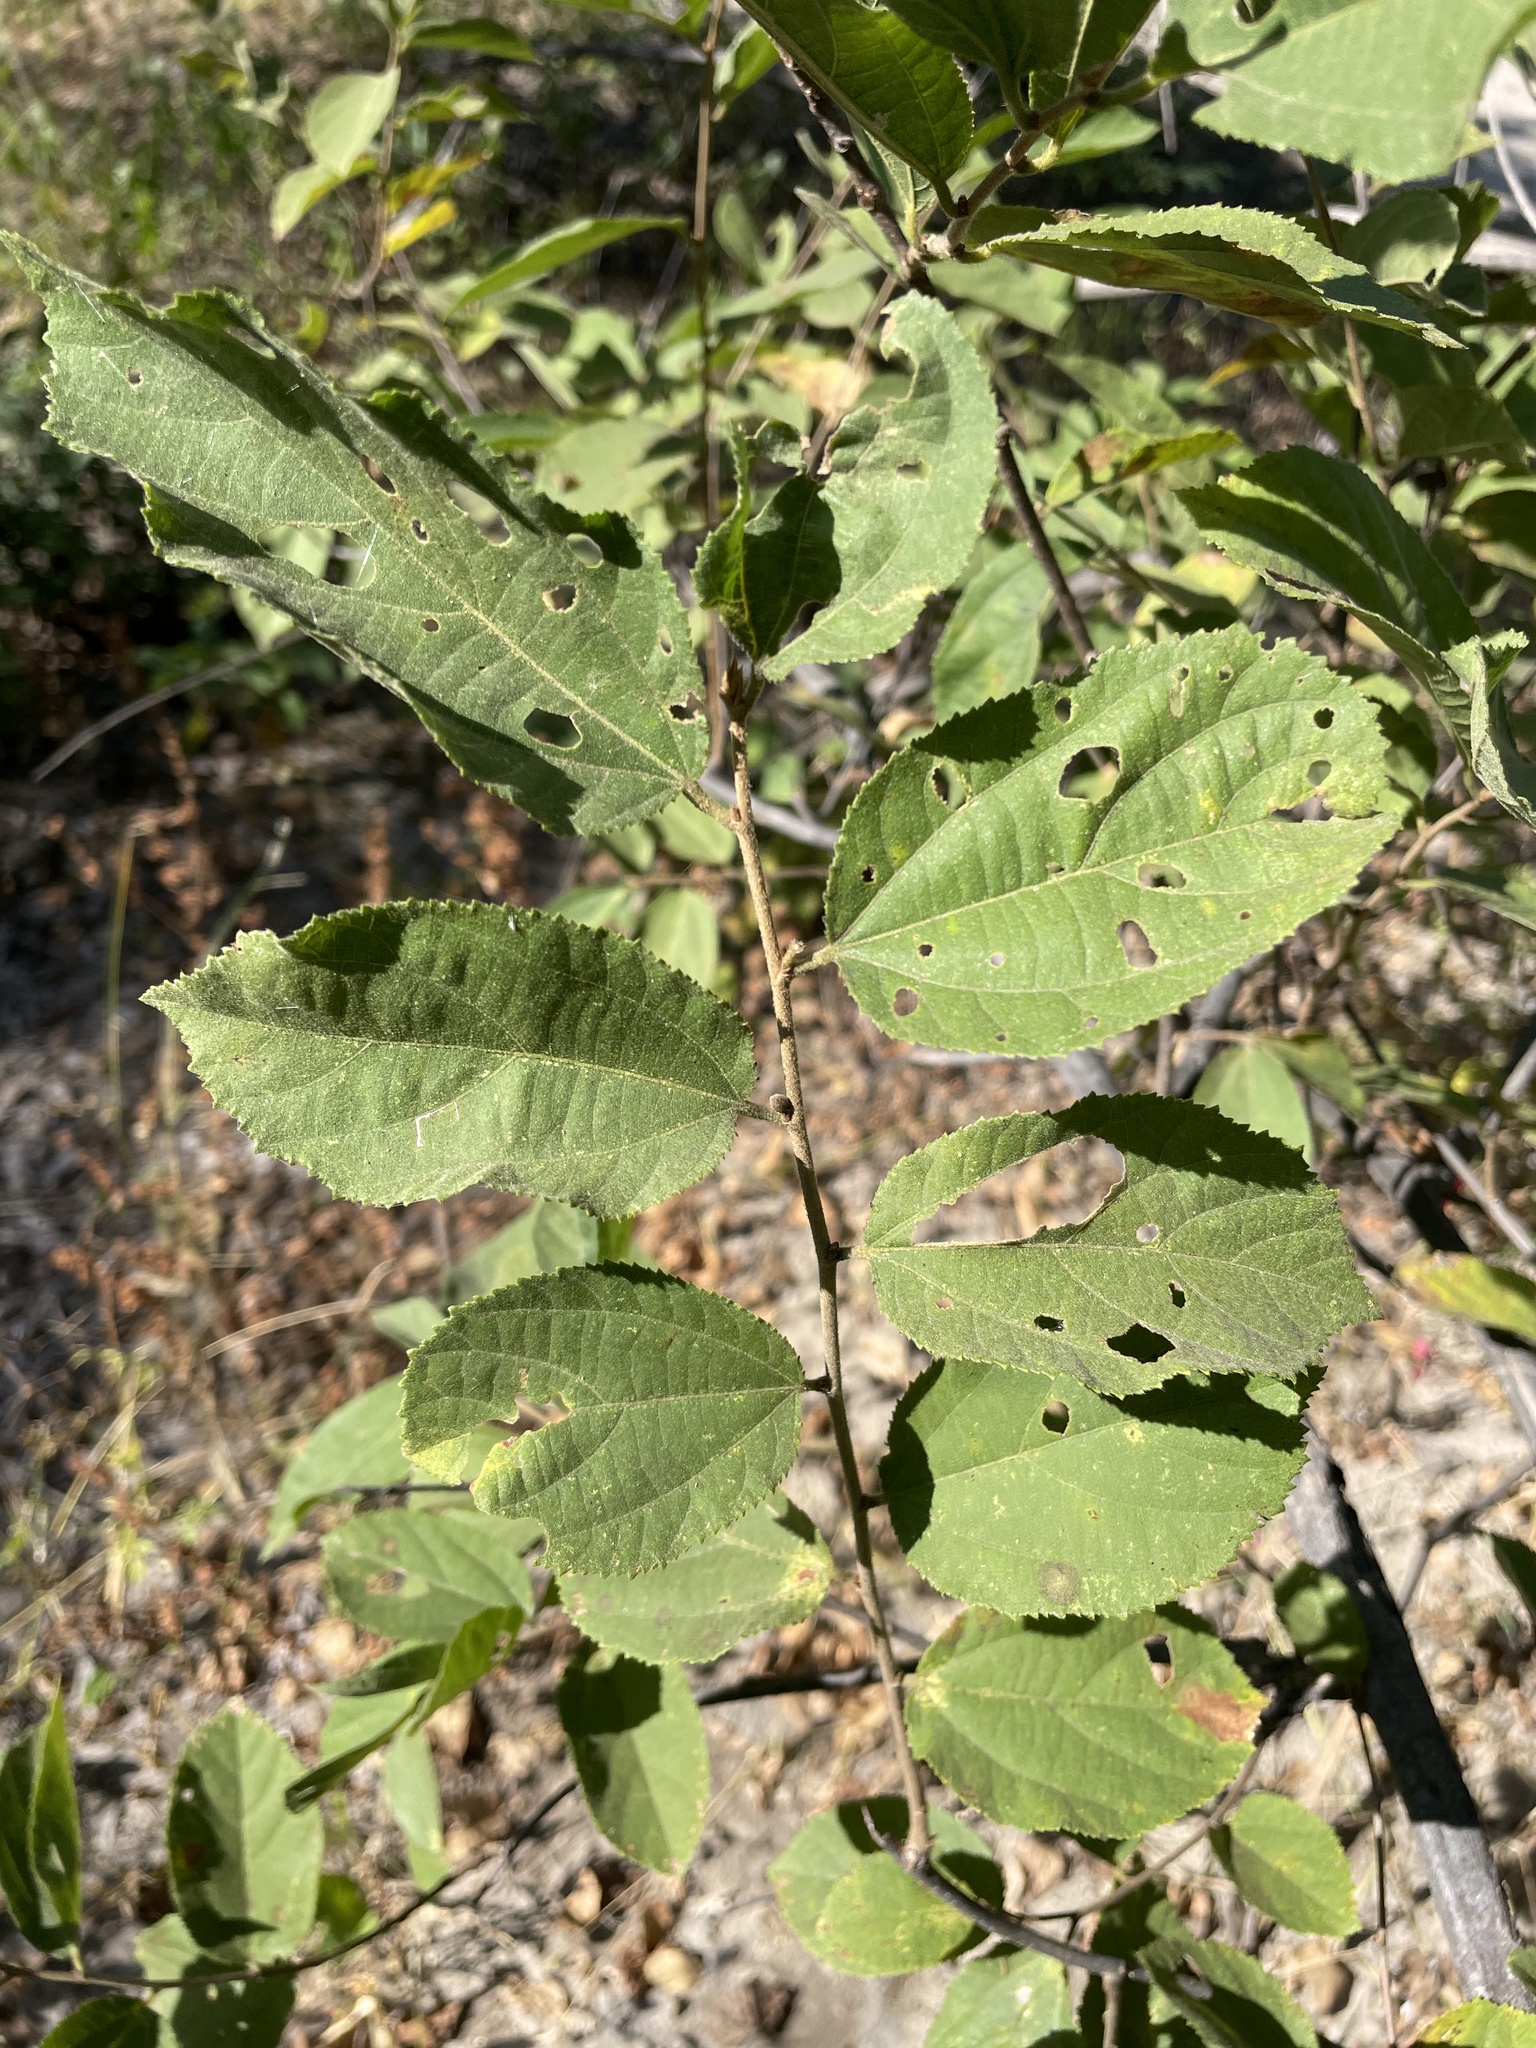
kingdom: Plantae
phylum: Tracheophyta
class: Magnoliopsida
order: Malvales
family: Malvaceae
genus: Grewia
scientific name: Grewia flavescens
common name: Sandpaper raisin
